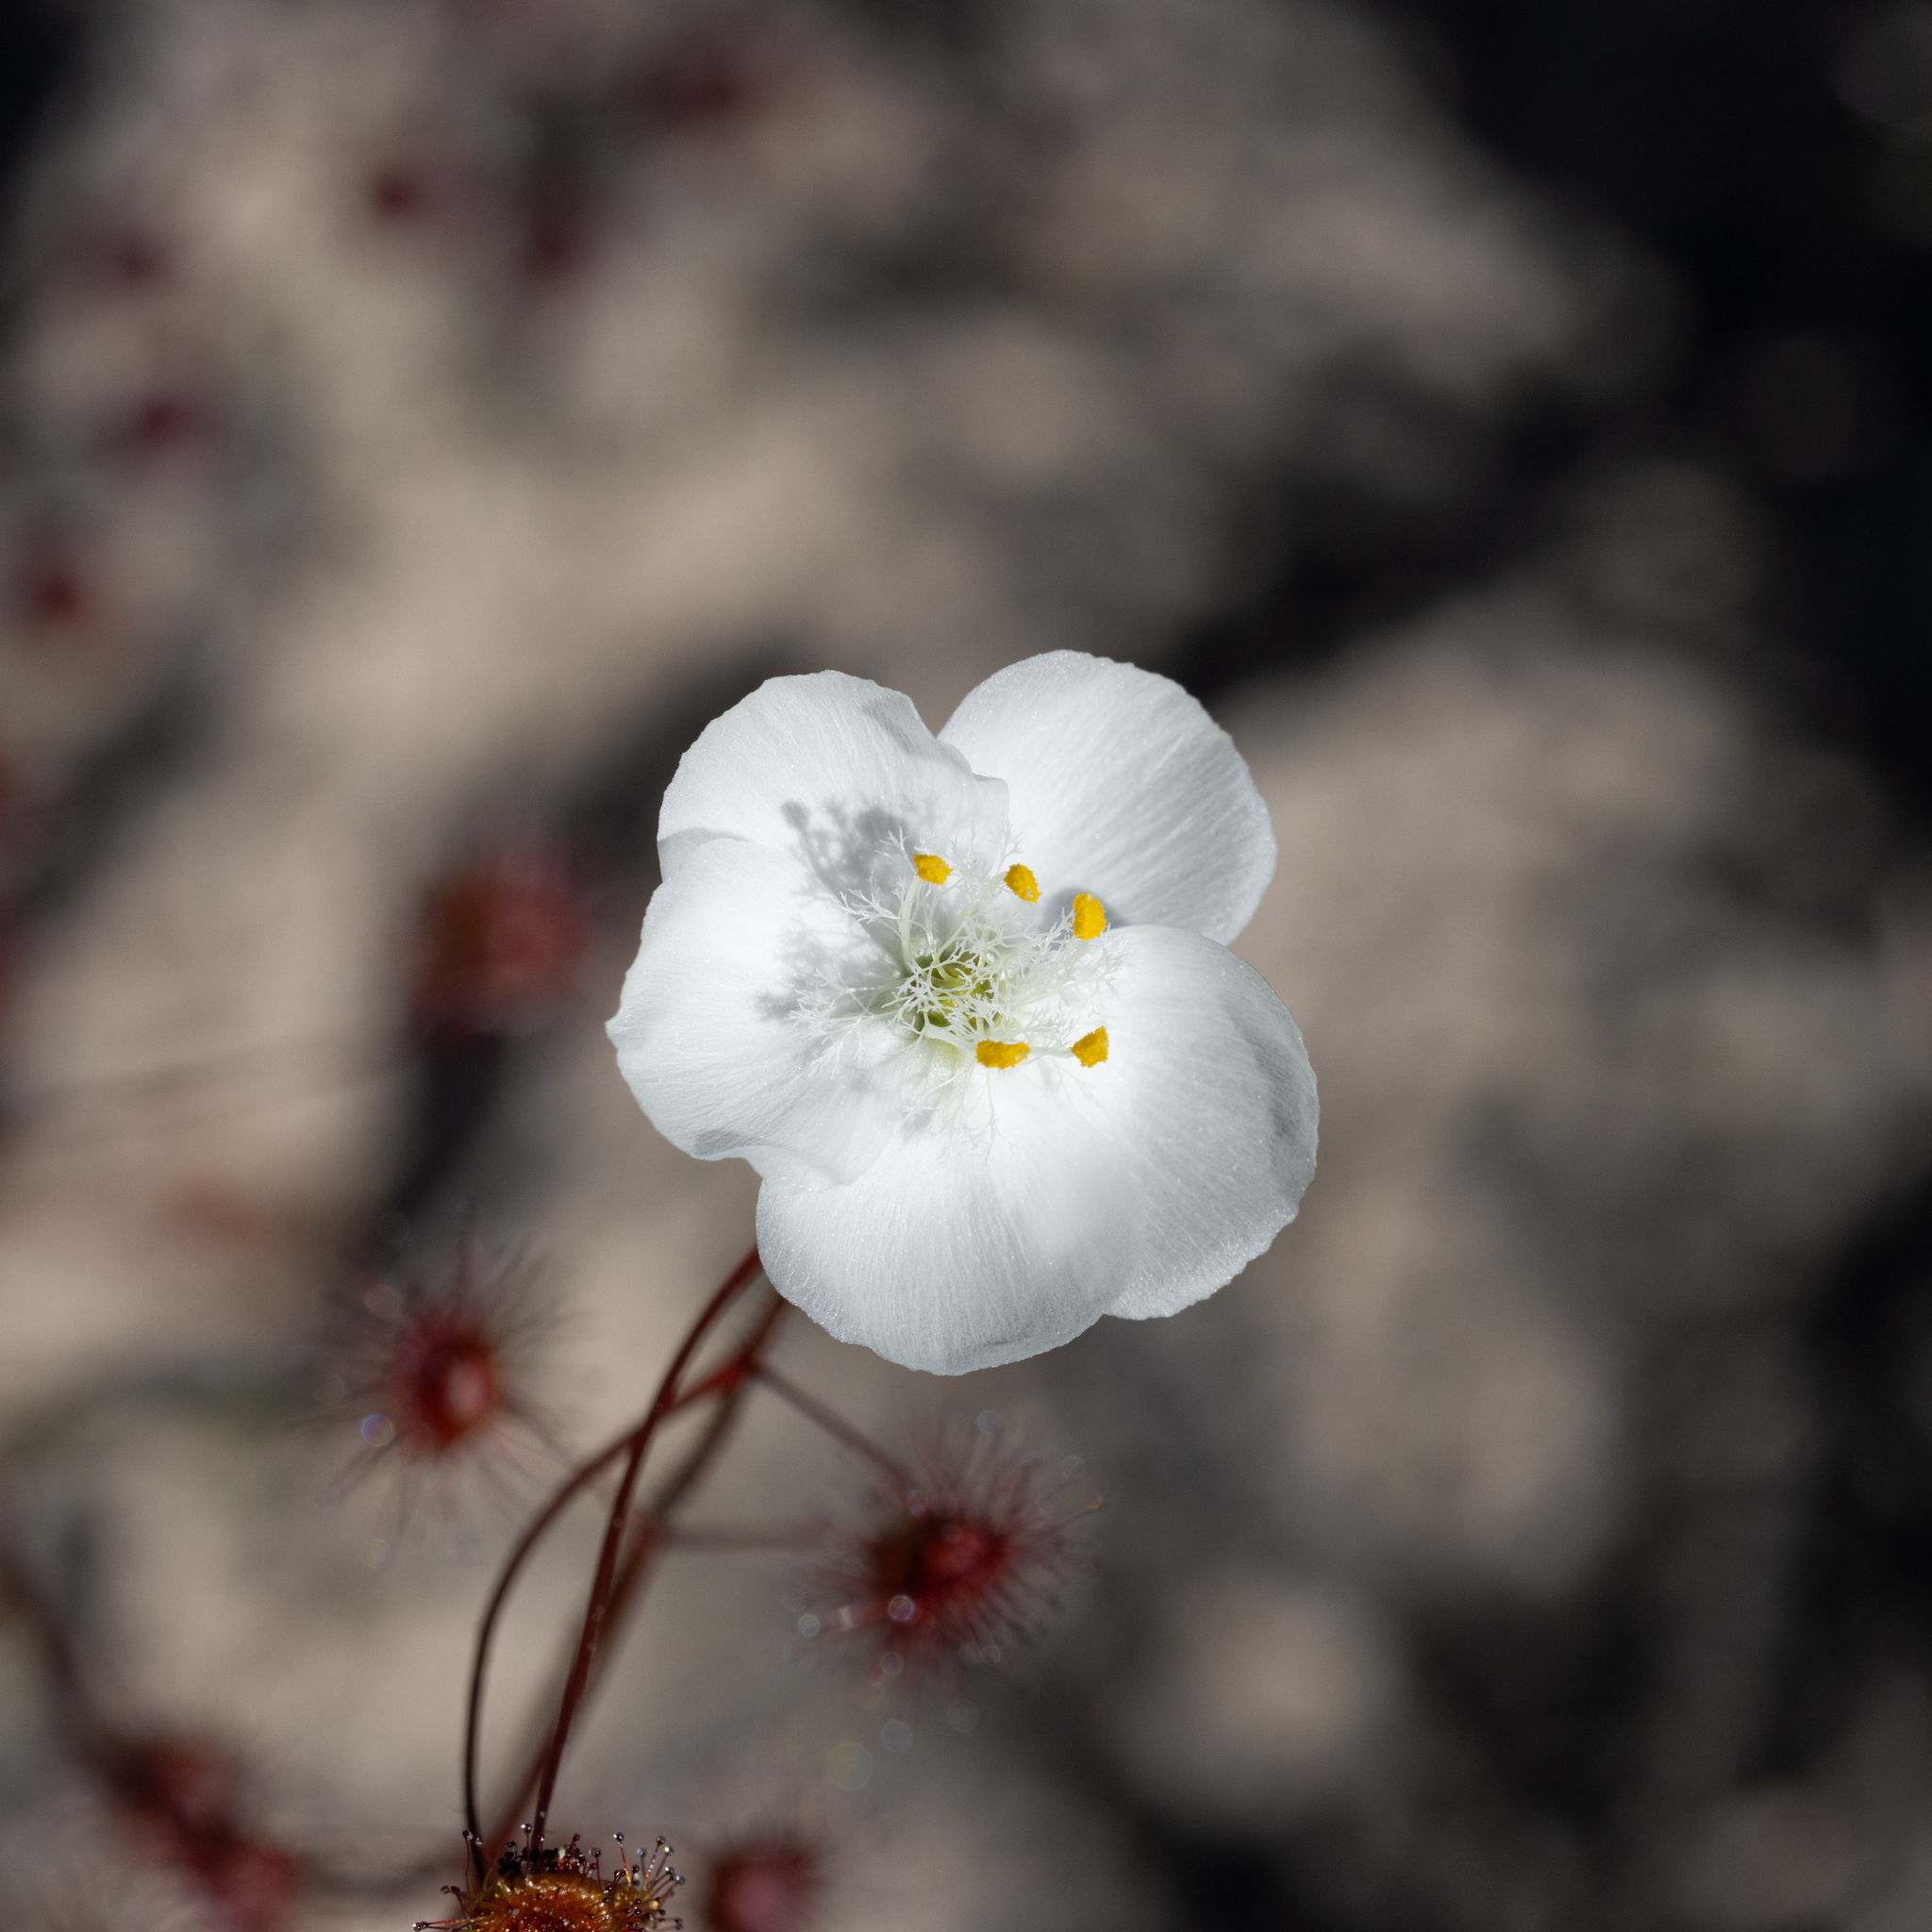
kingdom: Plantae
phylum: Tracheophyta
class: Magnoliopsida
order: Caryophyllales
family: Droseraceae
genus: Drosera
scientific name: Drosera planchonii
